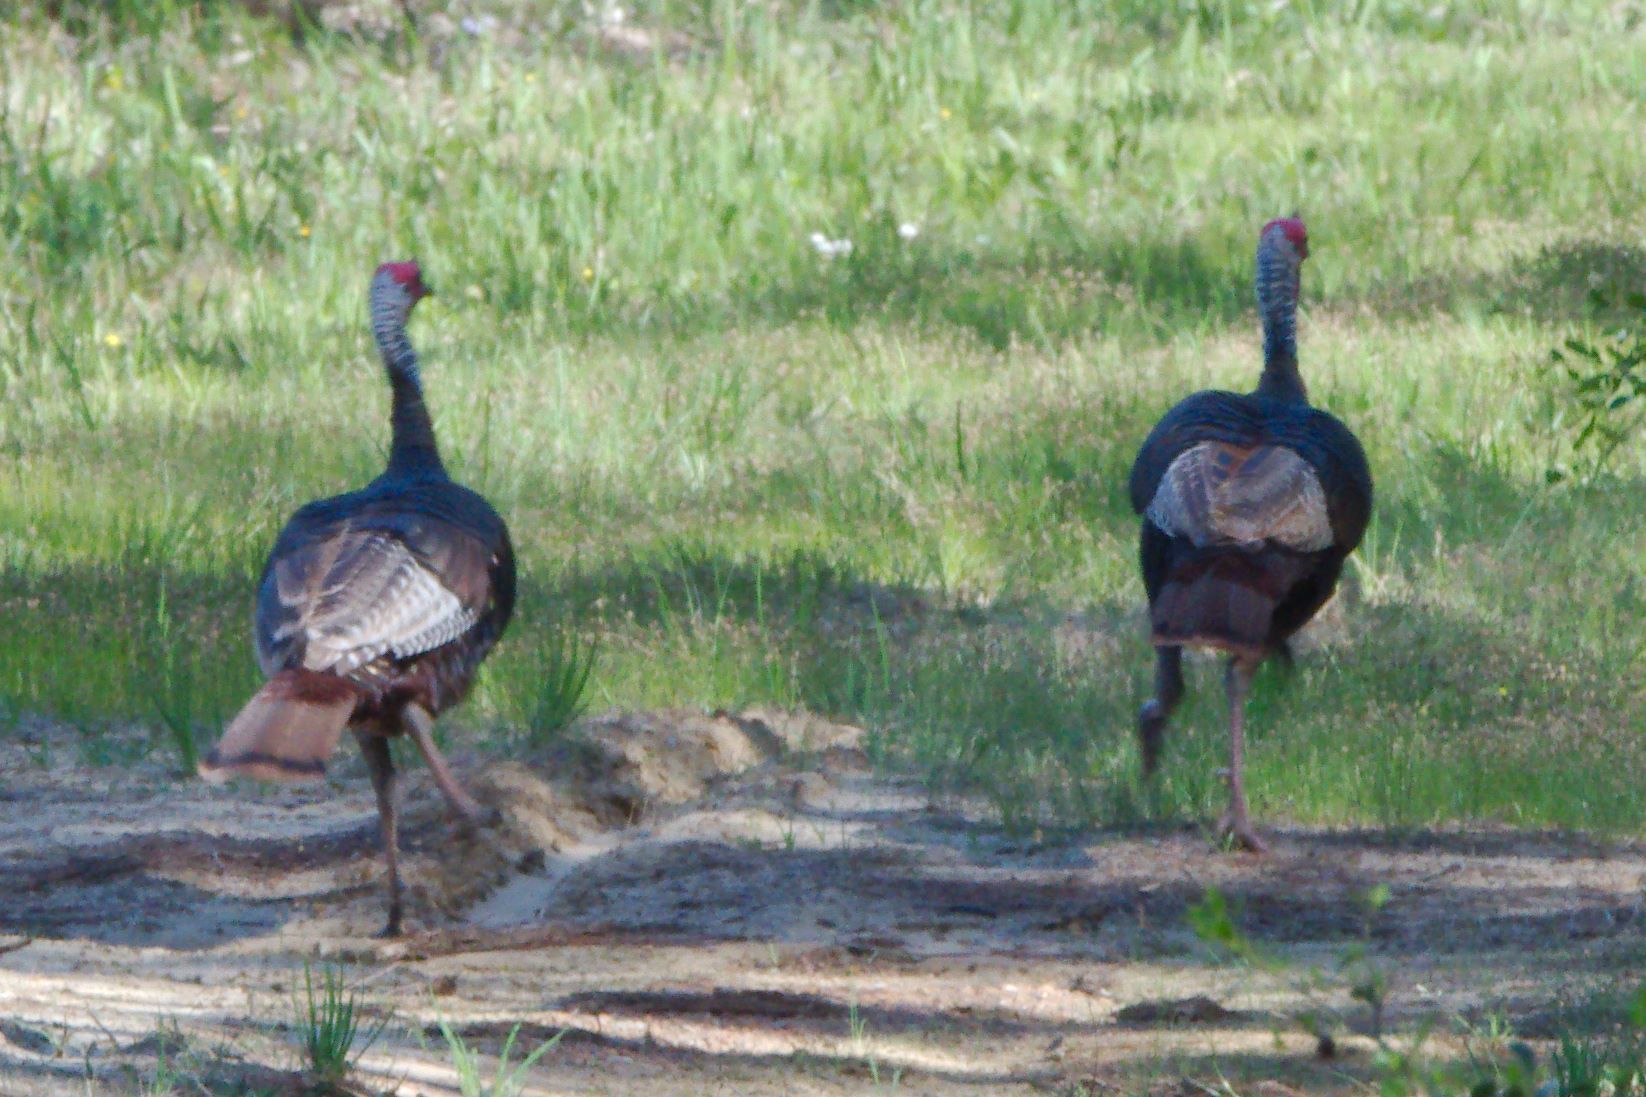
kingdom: Animalia
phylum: Chordata
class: Aves
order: Galliformes
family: Phasianidae
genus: Meleagris
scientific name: Meleagris gallopavo
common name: Wild turkey
